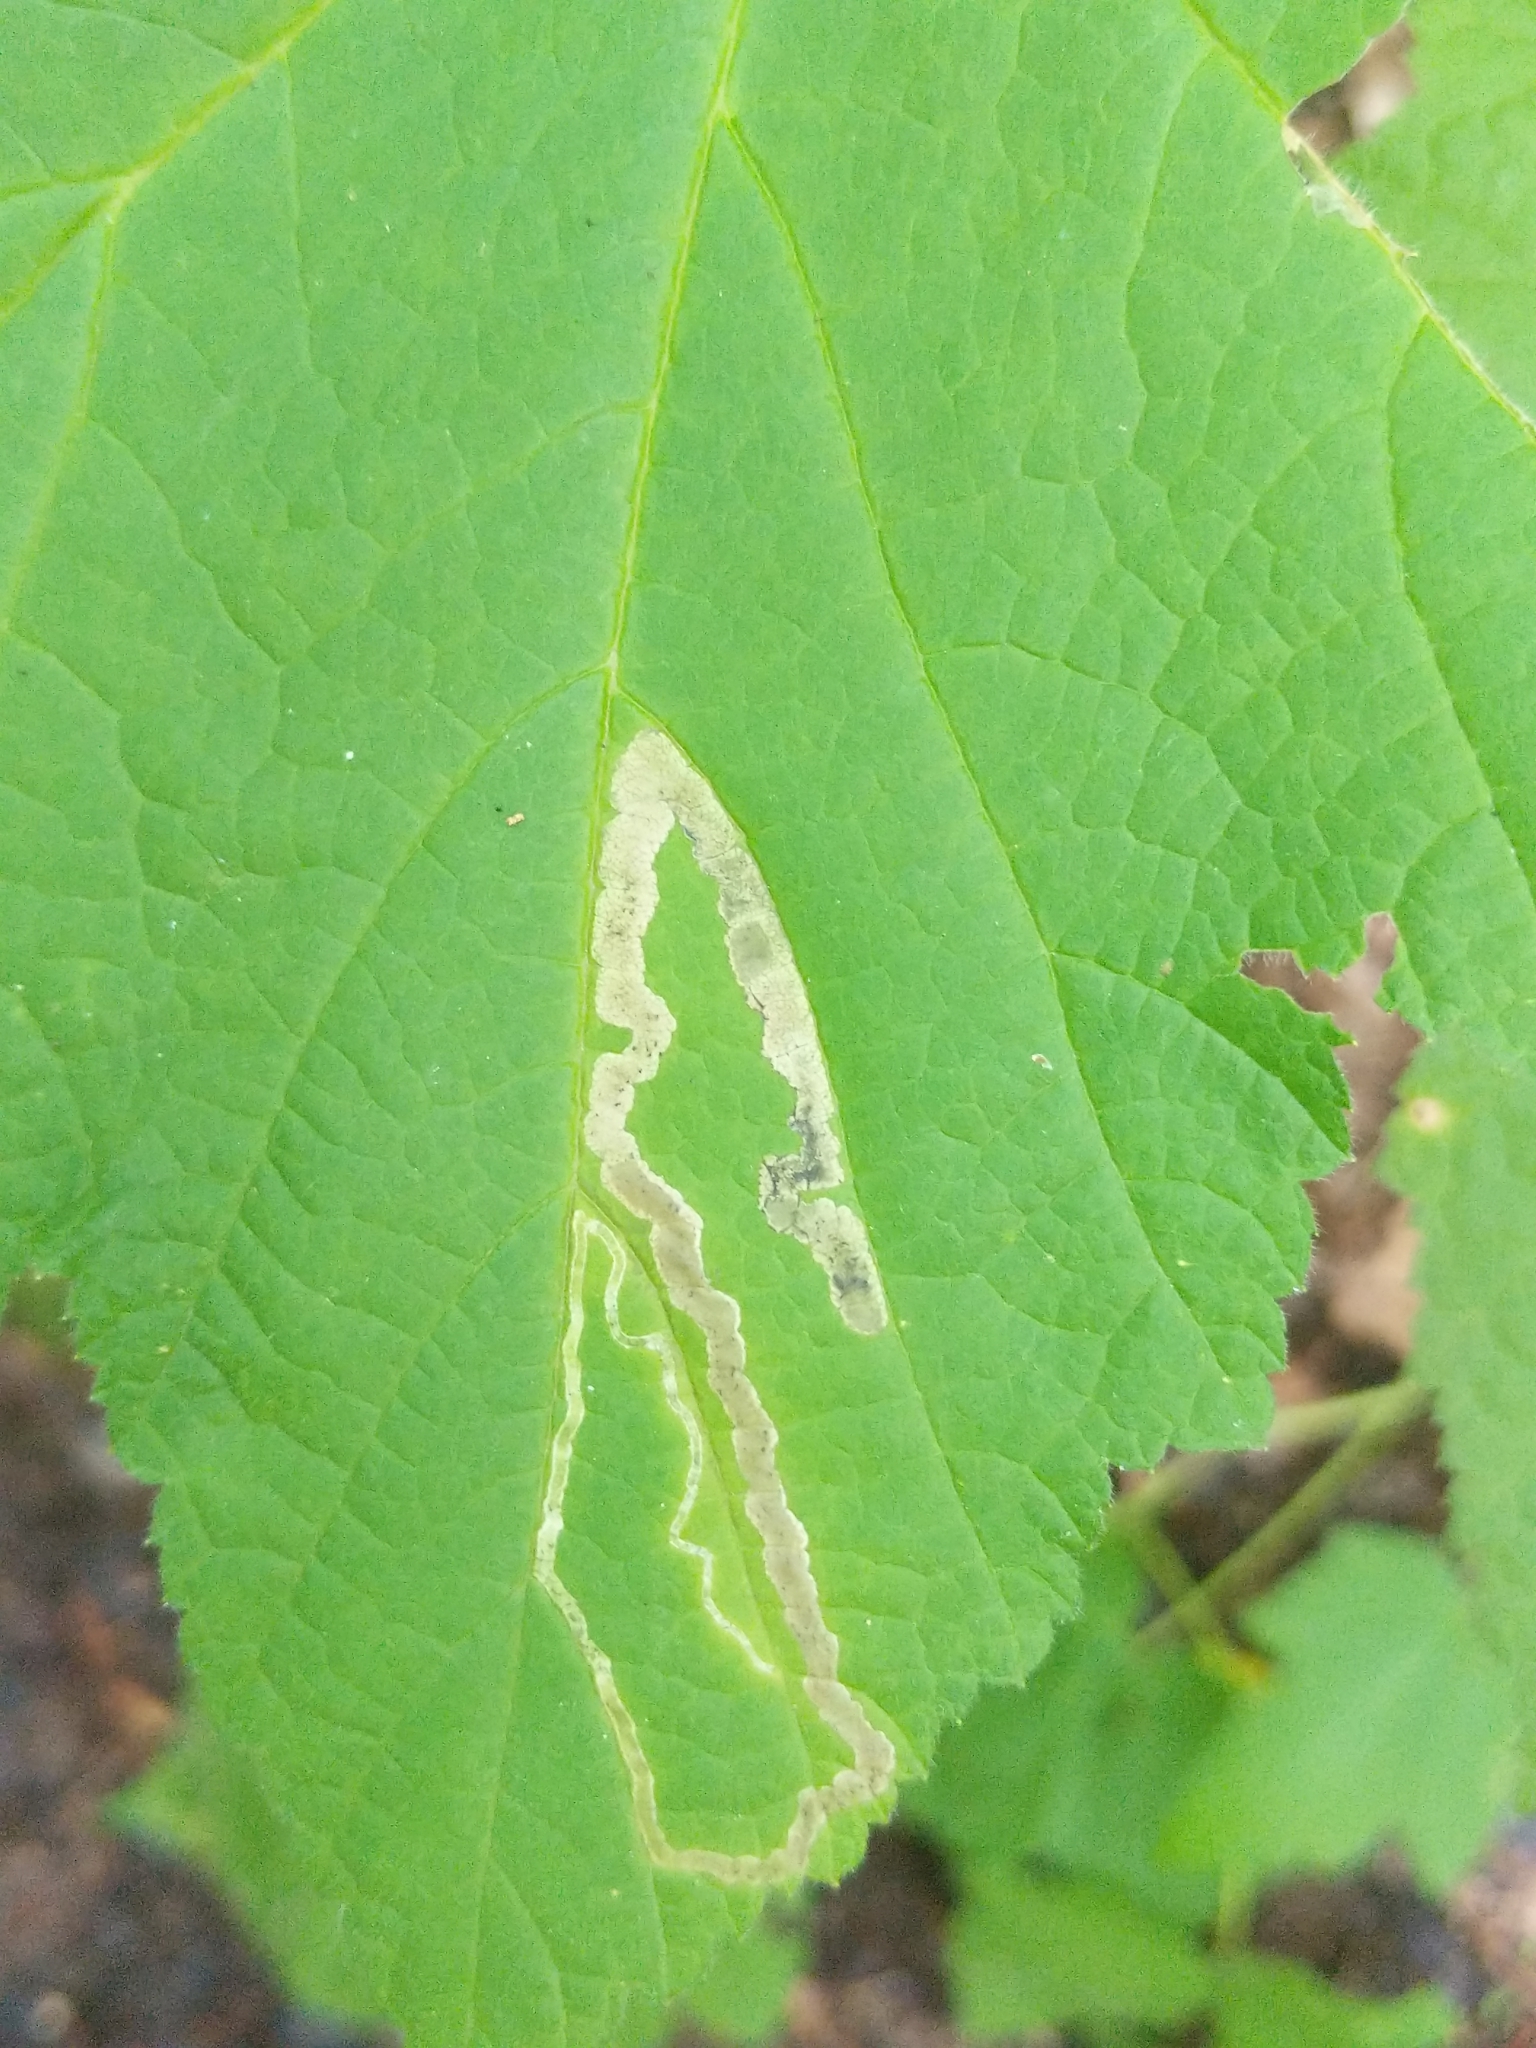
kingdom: Animalia
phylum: Arthropoda
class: Insecta
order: Diptera
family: Agromyzidae
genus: Agromyza
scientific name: Agromyza vockerothi
